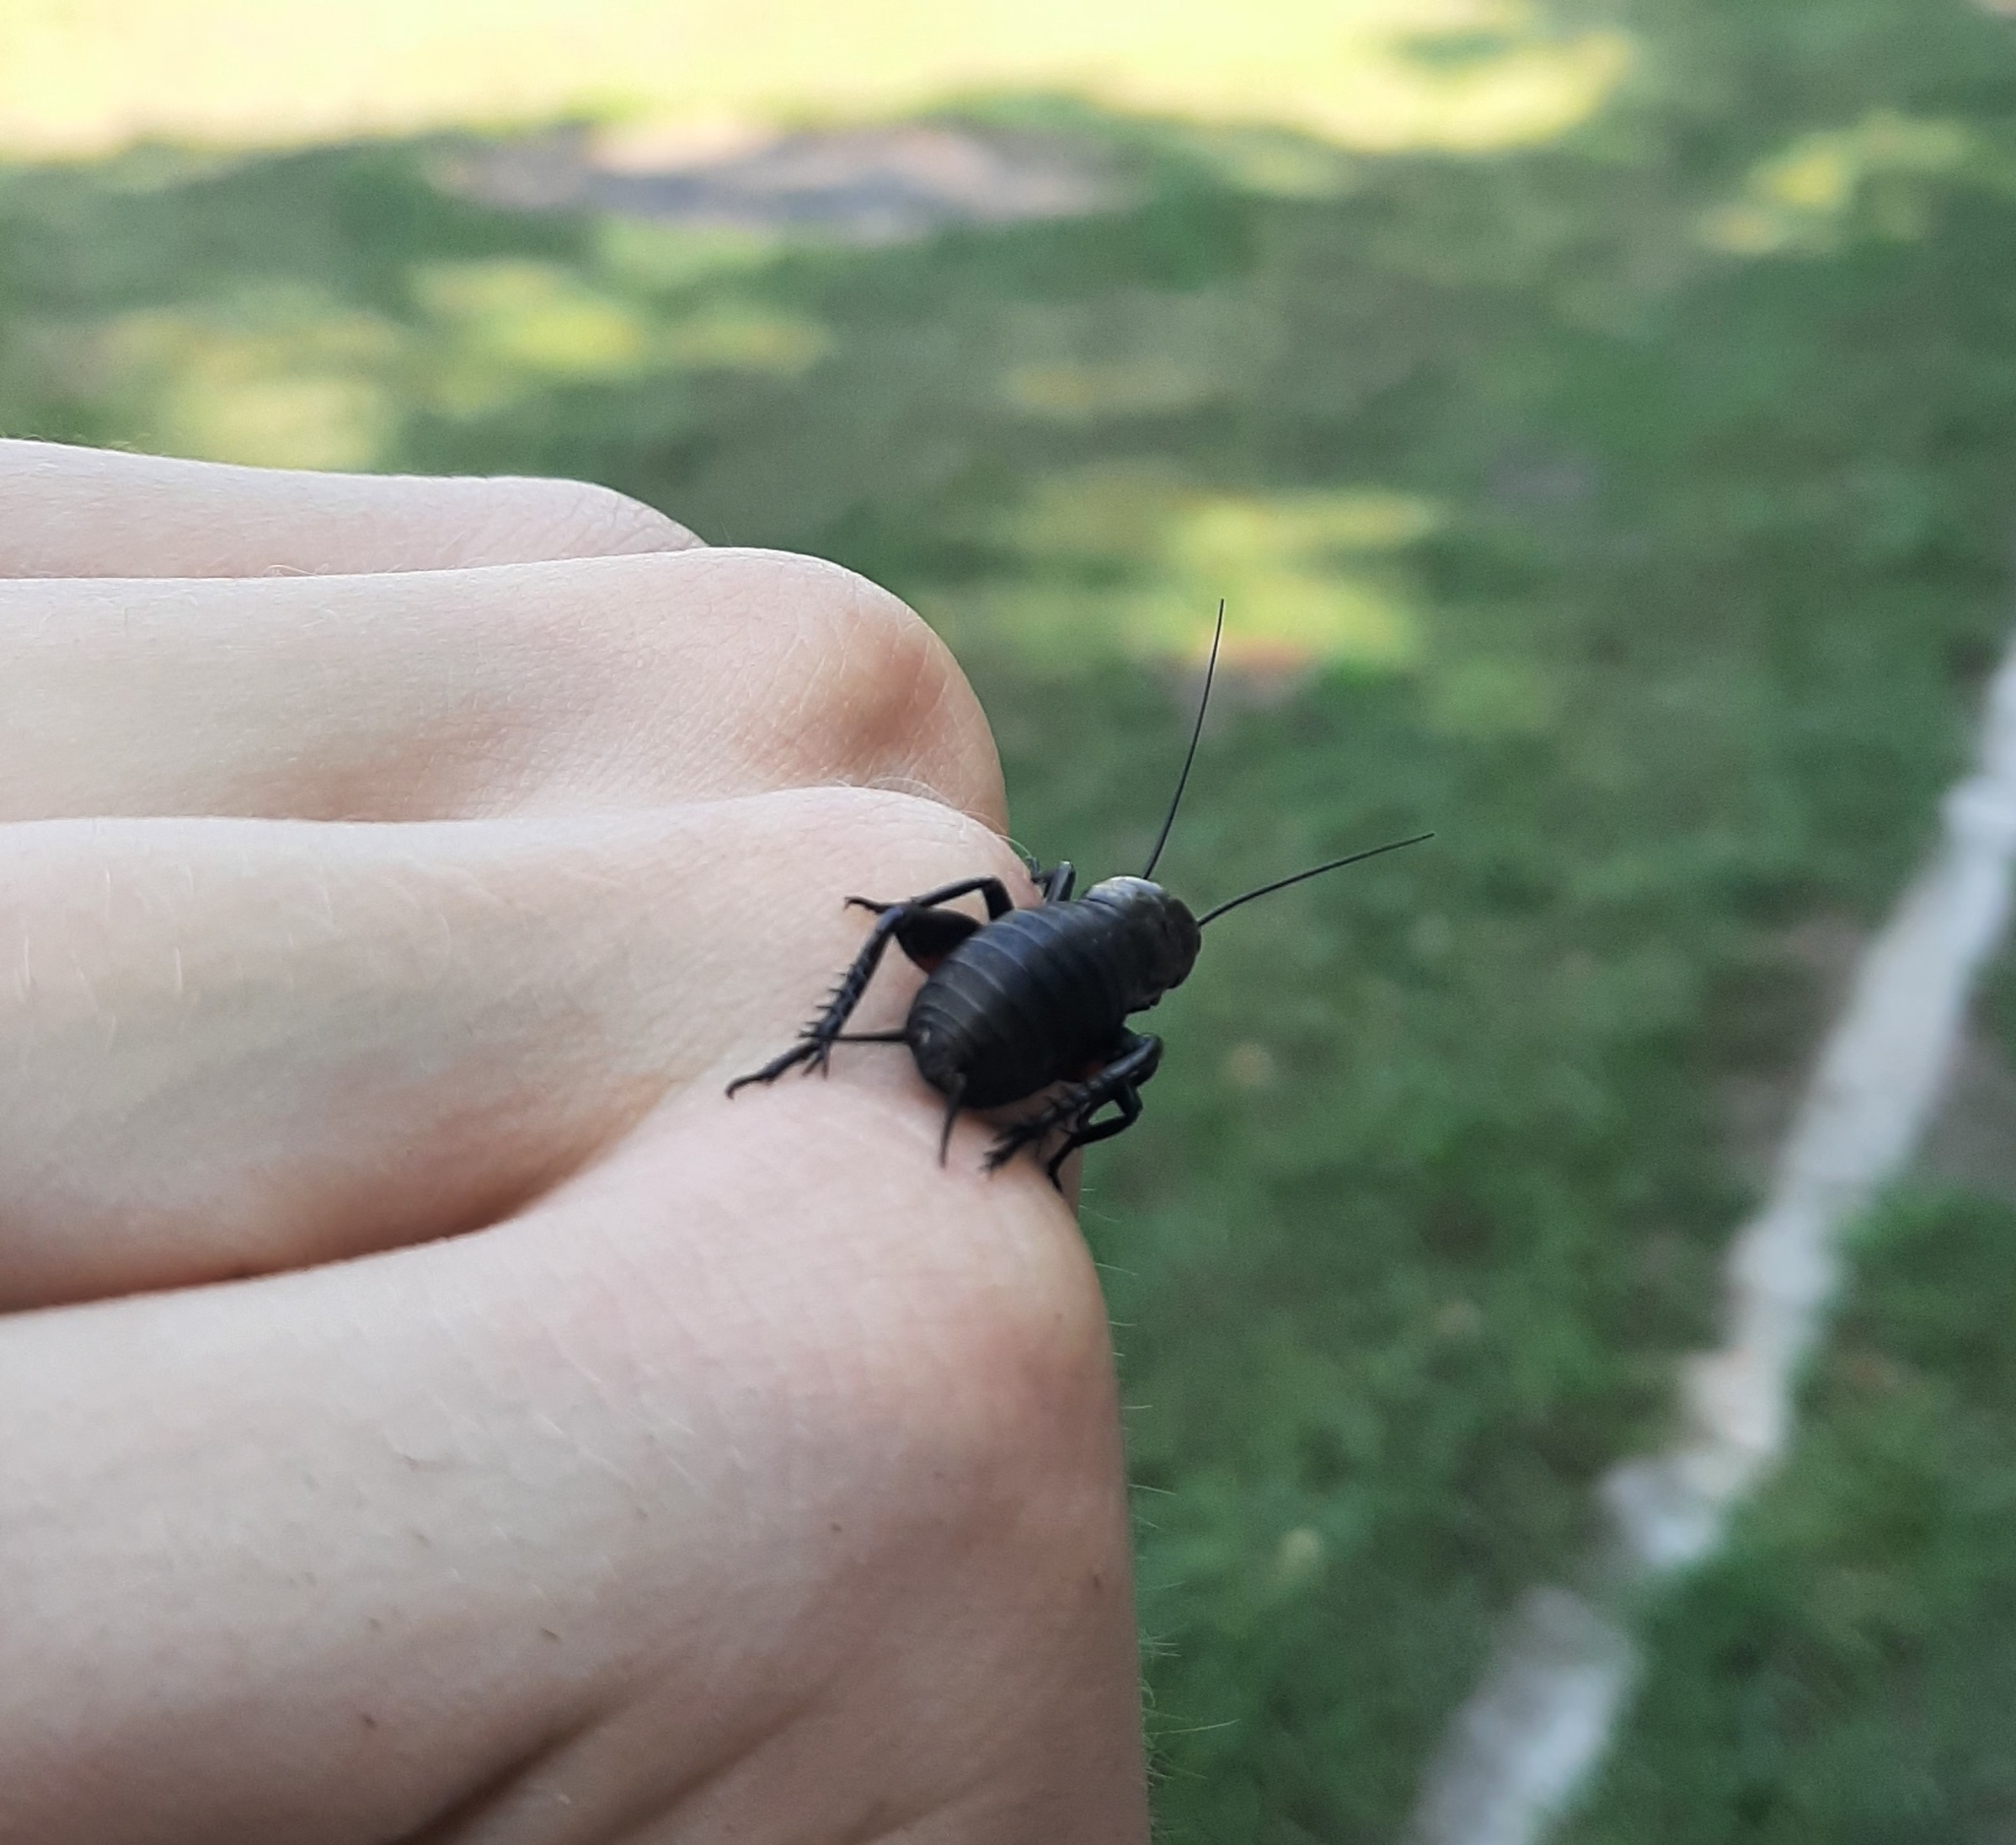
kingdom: Animalia
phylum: Arthropoda
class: Insecta
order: Orthoptera
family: Gryllidae
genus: Gryllus
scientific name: Gryllus campestris
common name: Field cricket
